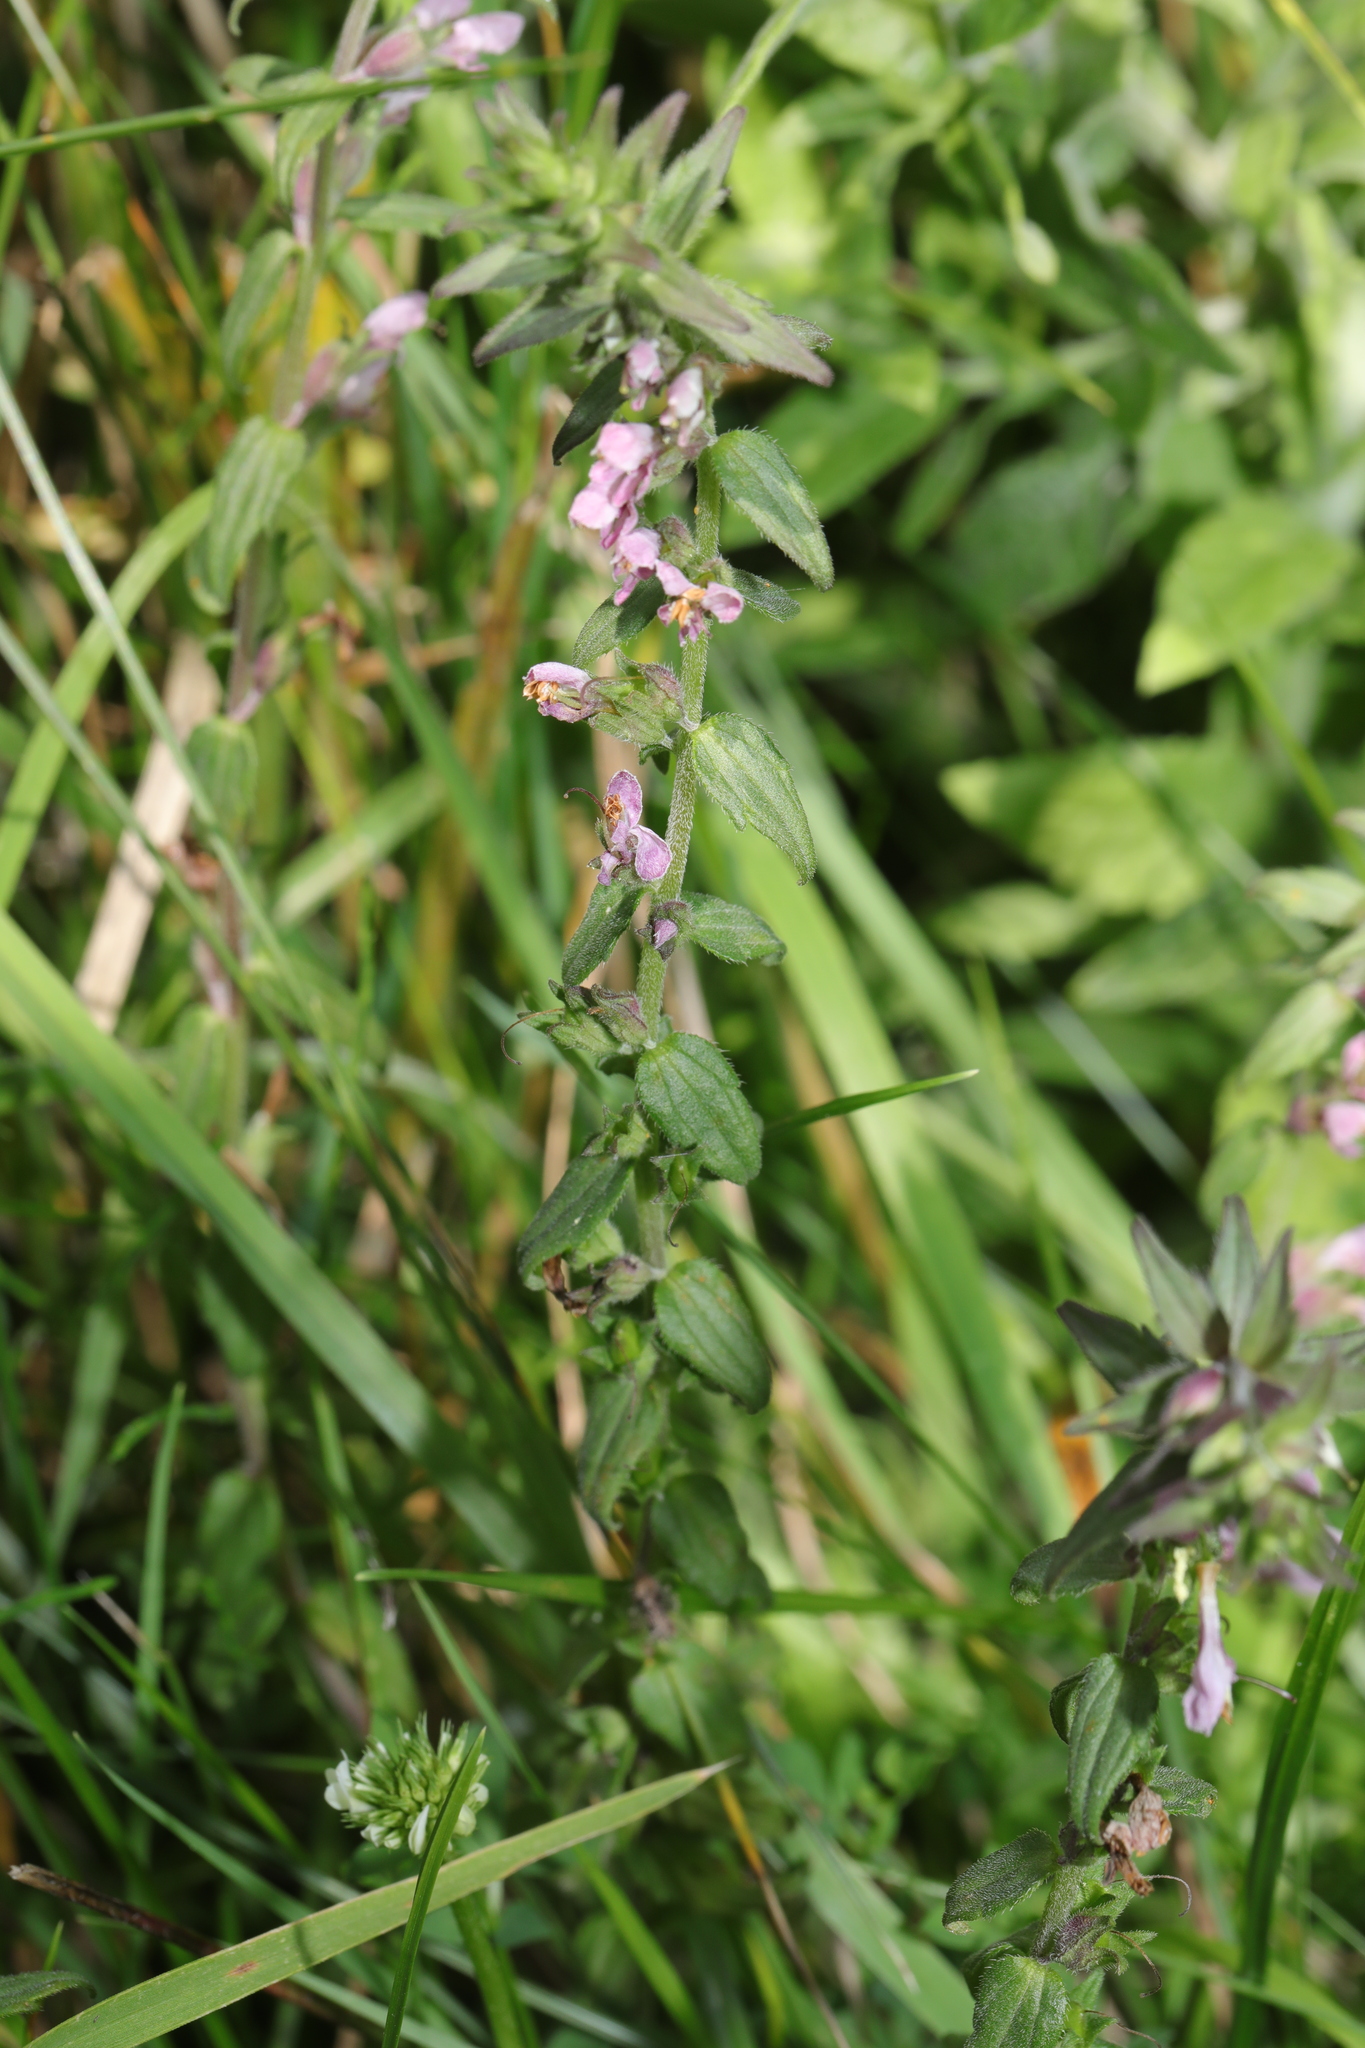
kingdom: Plantae
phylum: Tracheophyta
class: Magnoliopsida
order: Lamiales
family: Orobanchaceae
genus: Odontites
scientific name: Odontites vernus
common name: Red bartsia
